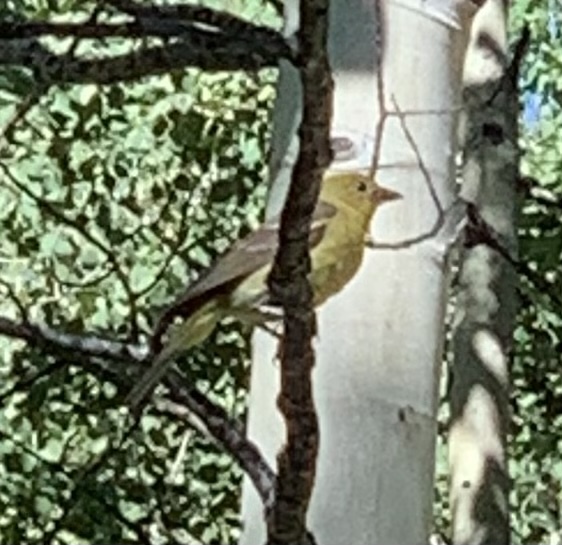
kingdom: Animalia
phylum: Chordata
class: Aves
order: Passeriformes
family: Cardinalidae
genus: Piranga
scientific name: Piranga ludoviciana
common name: Western tanager
